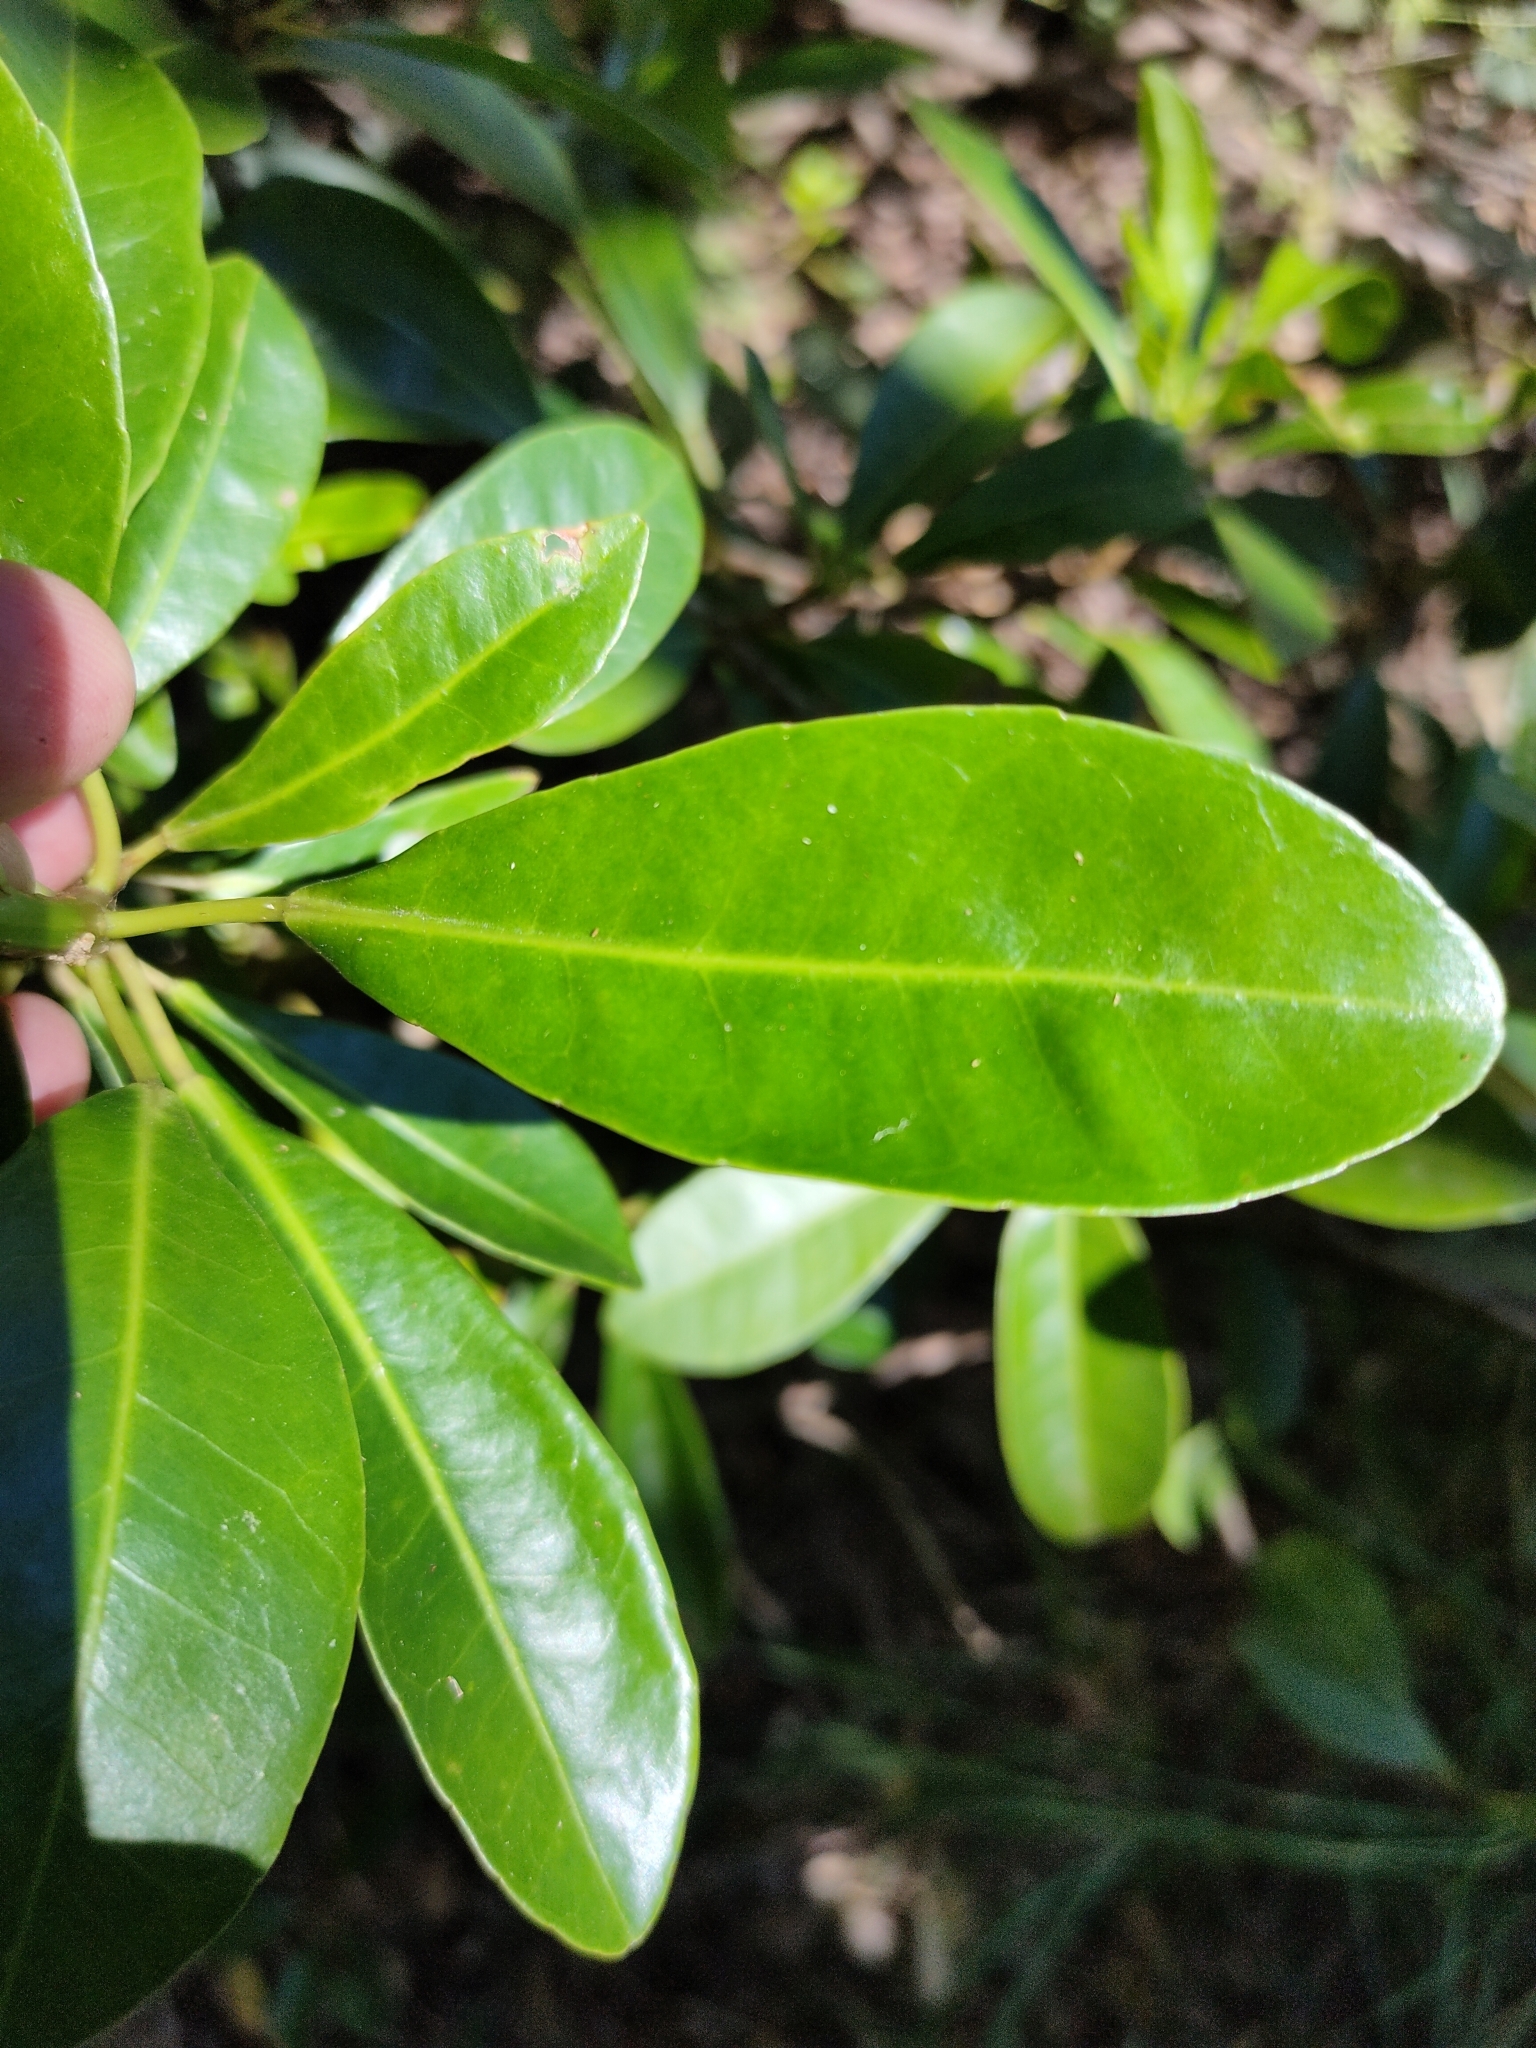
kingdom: Plantae
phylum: Tracheophyta
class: Magnoliopsida
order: Malpighiales
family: Euphorbiaceae
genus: Excoecaria
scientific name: Excoecaria agallocha
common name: River poisontree
